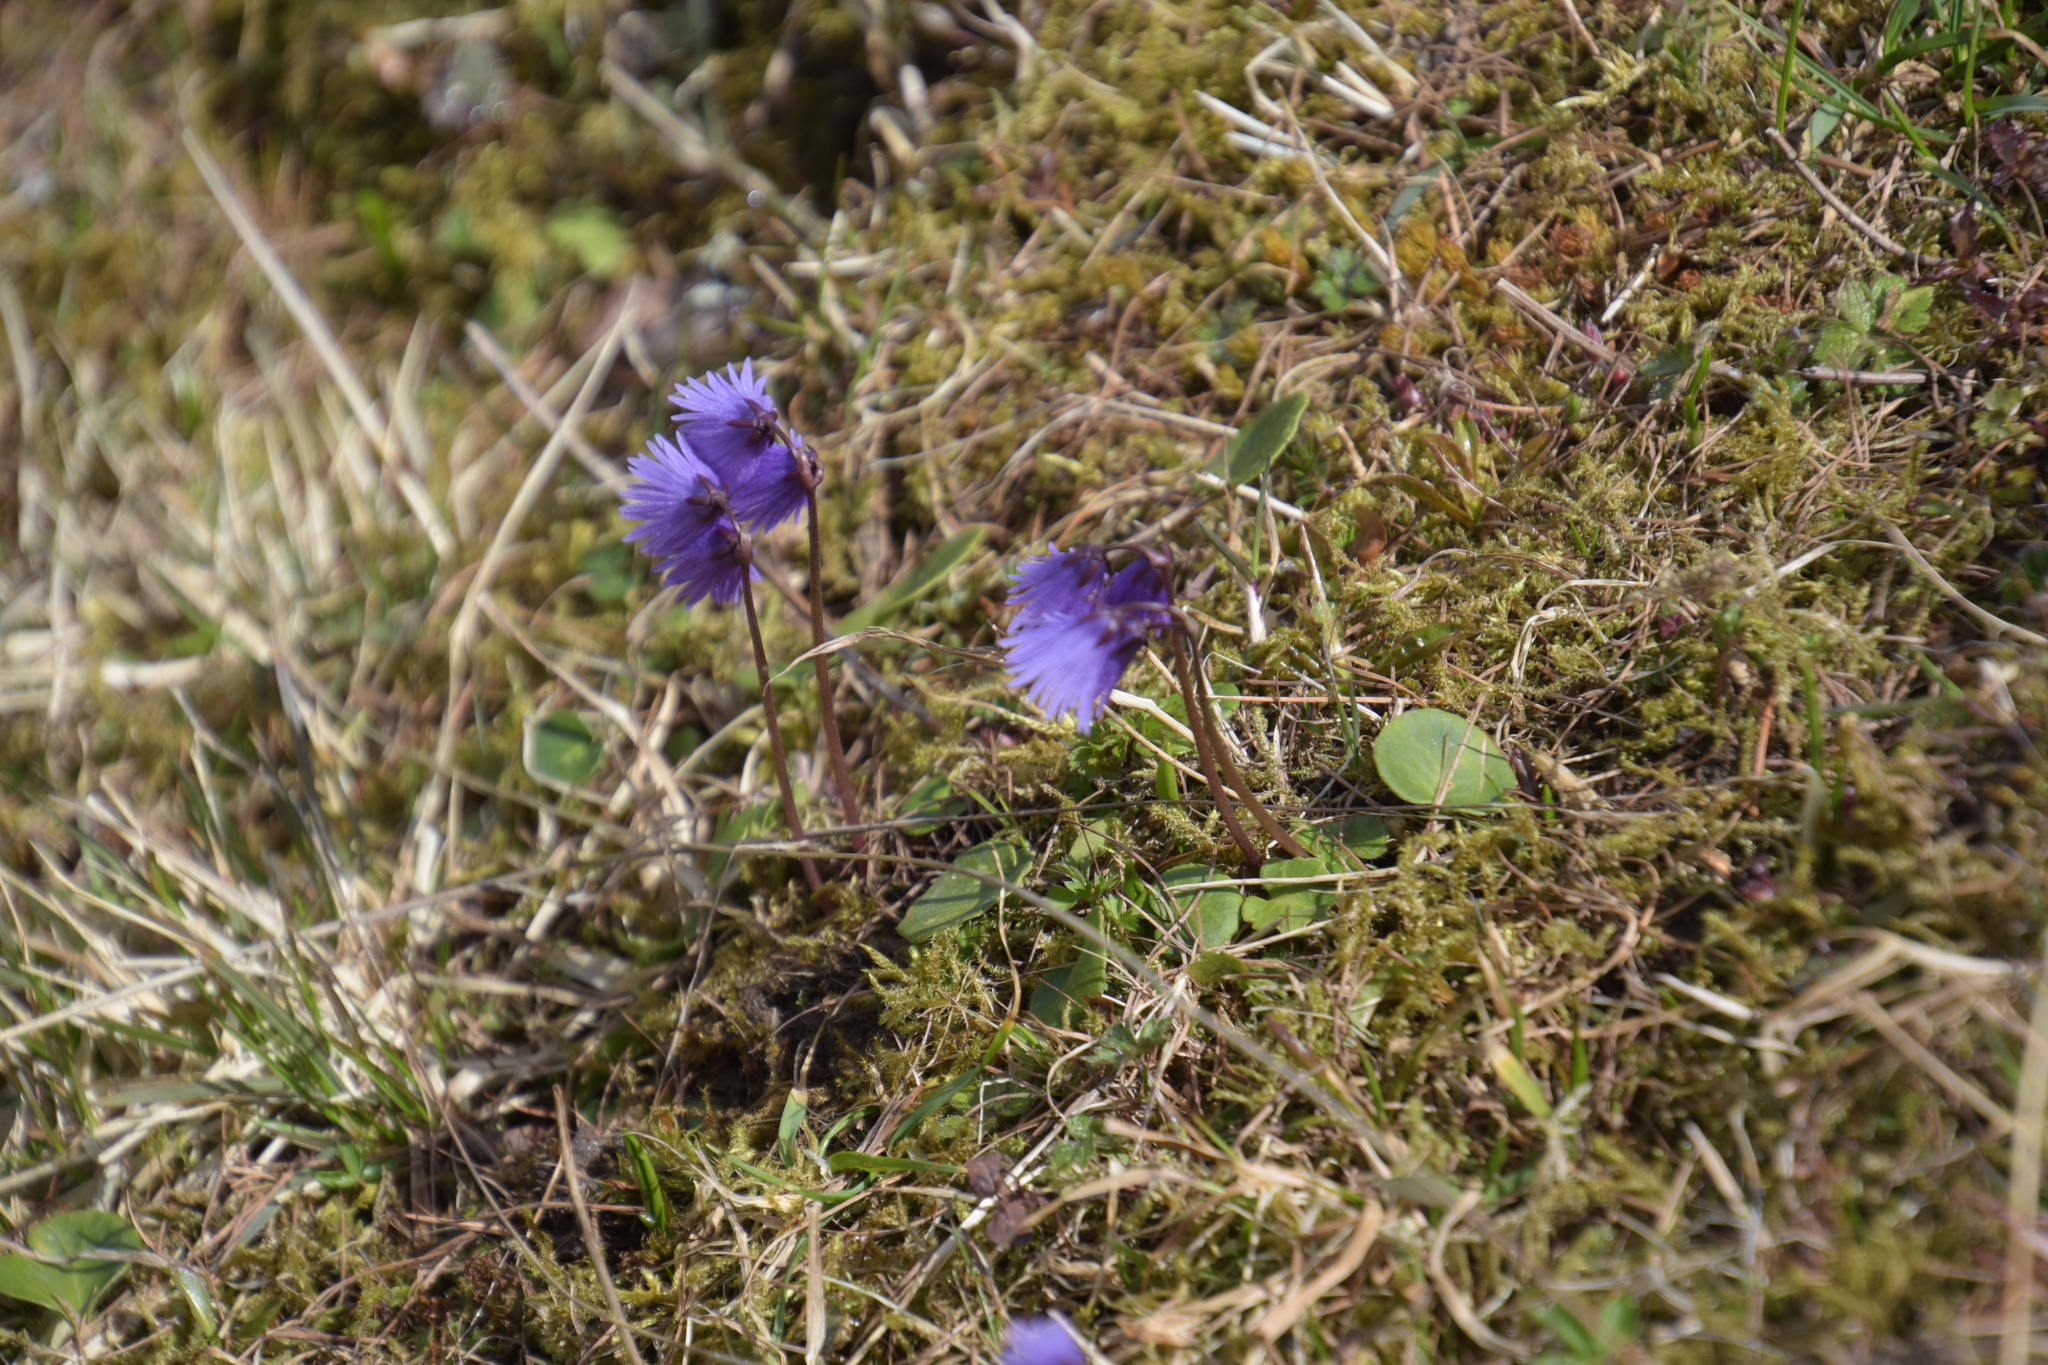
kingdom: Plantae
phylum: Tracheophyta
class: Magnoliopsida
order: Ericales
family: Primulaceae
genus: Soldanella
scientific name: Soldanella alpina
